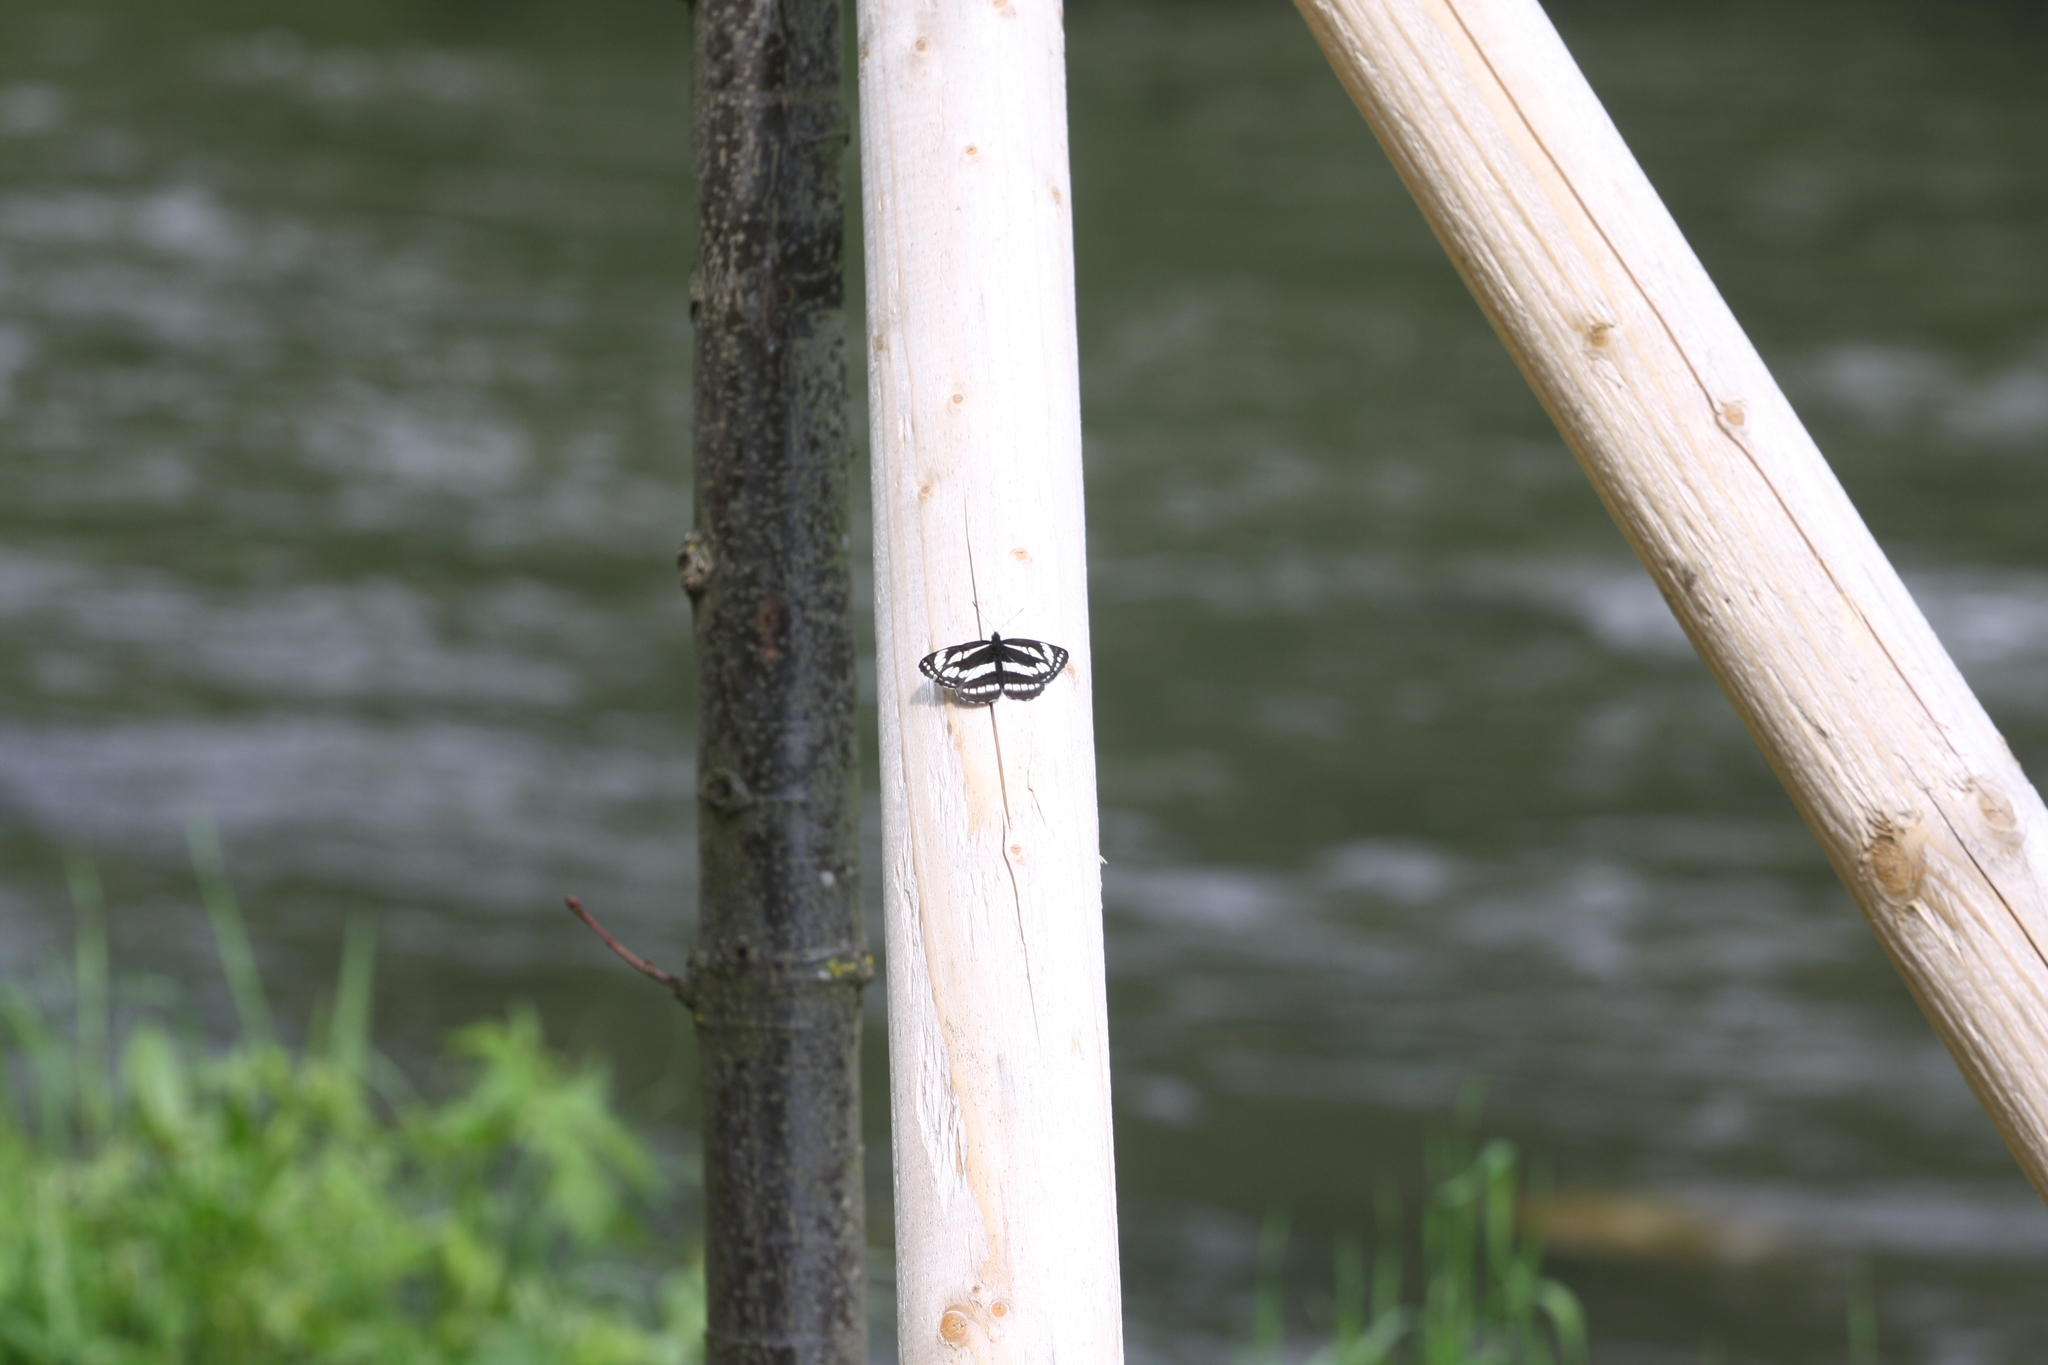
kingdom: Animalia
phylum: Arthropoda
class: Insecta
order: Lepidoptera
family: Nymphalidae
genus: Neptis
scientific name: Neptis sappho
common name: Common glider
